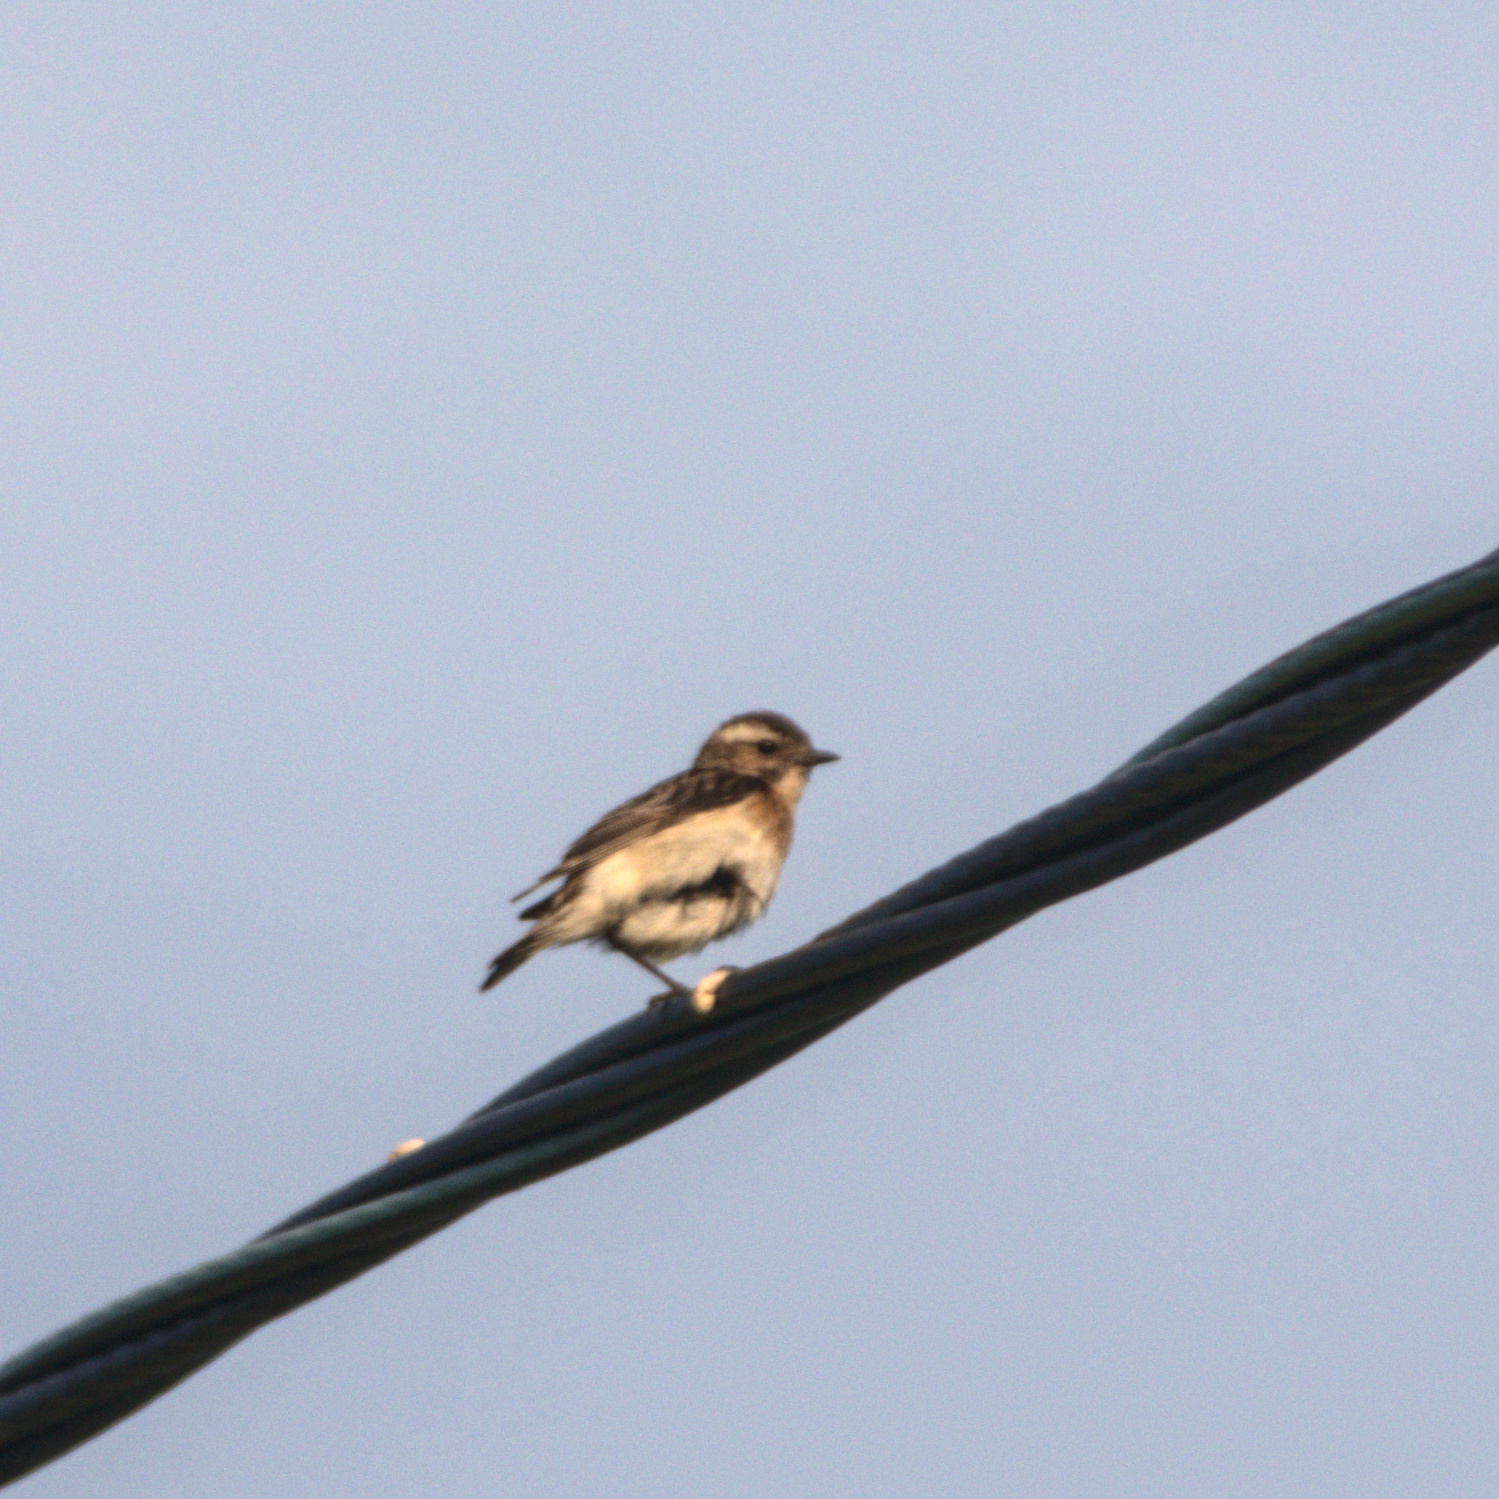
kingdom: Animalia
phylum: Chordata
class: Aves
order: Passeriformes
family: Muscicapidae
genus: Saxicola
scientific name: Saxicola rubetra
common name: Whinchat
